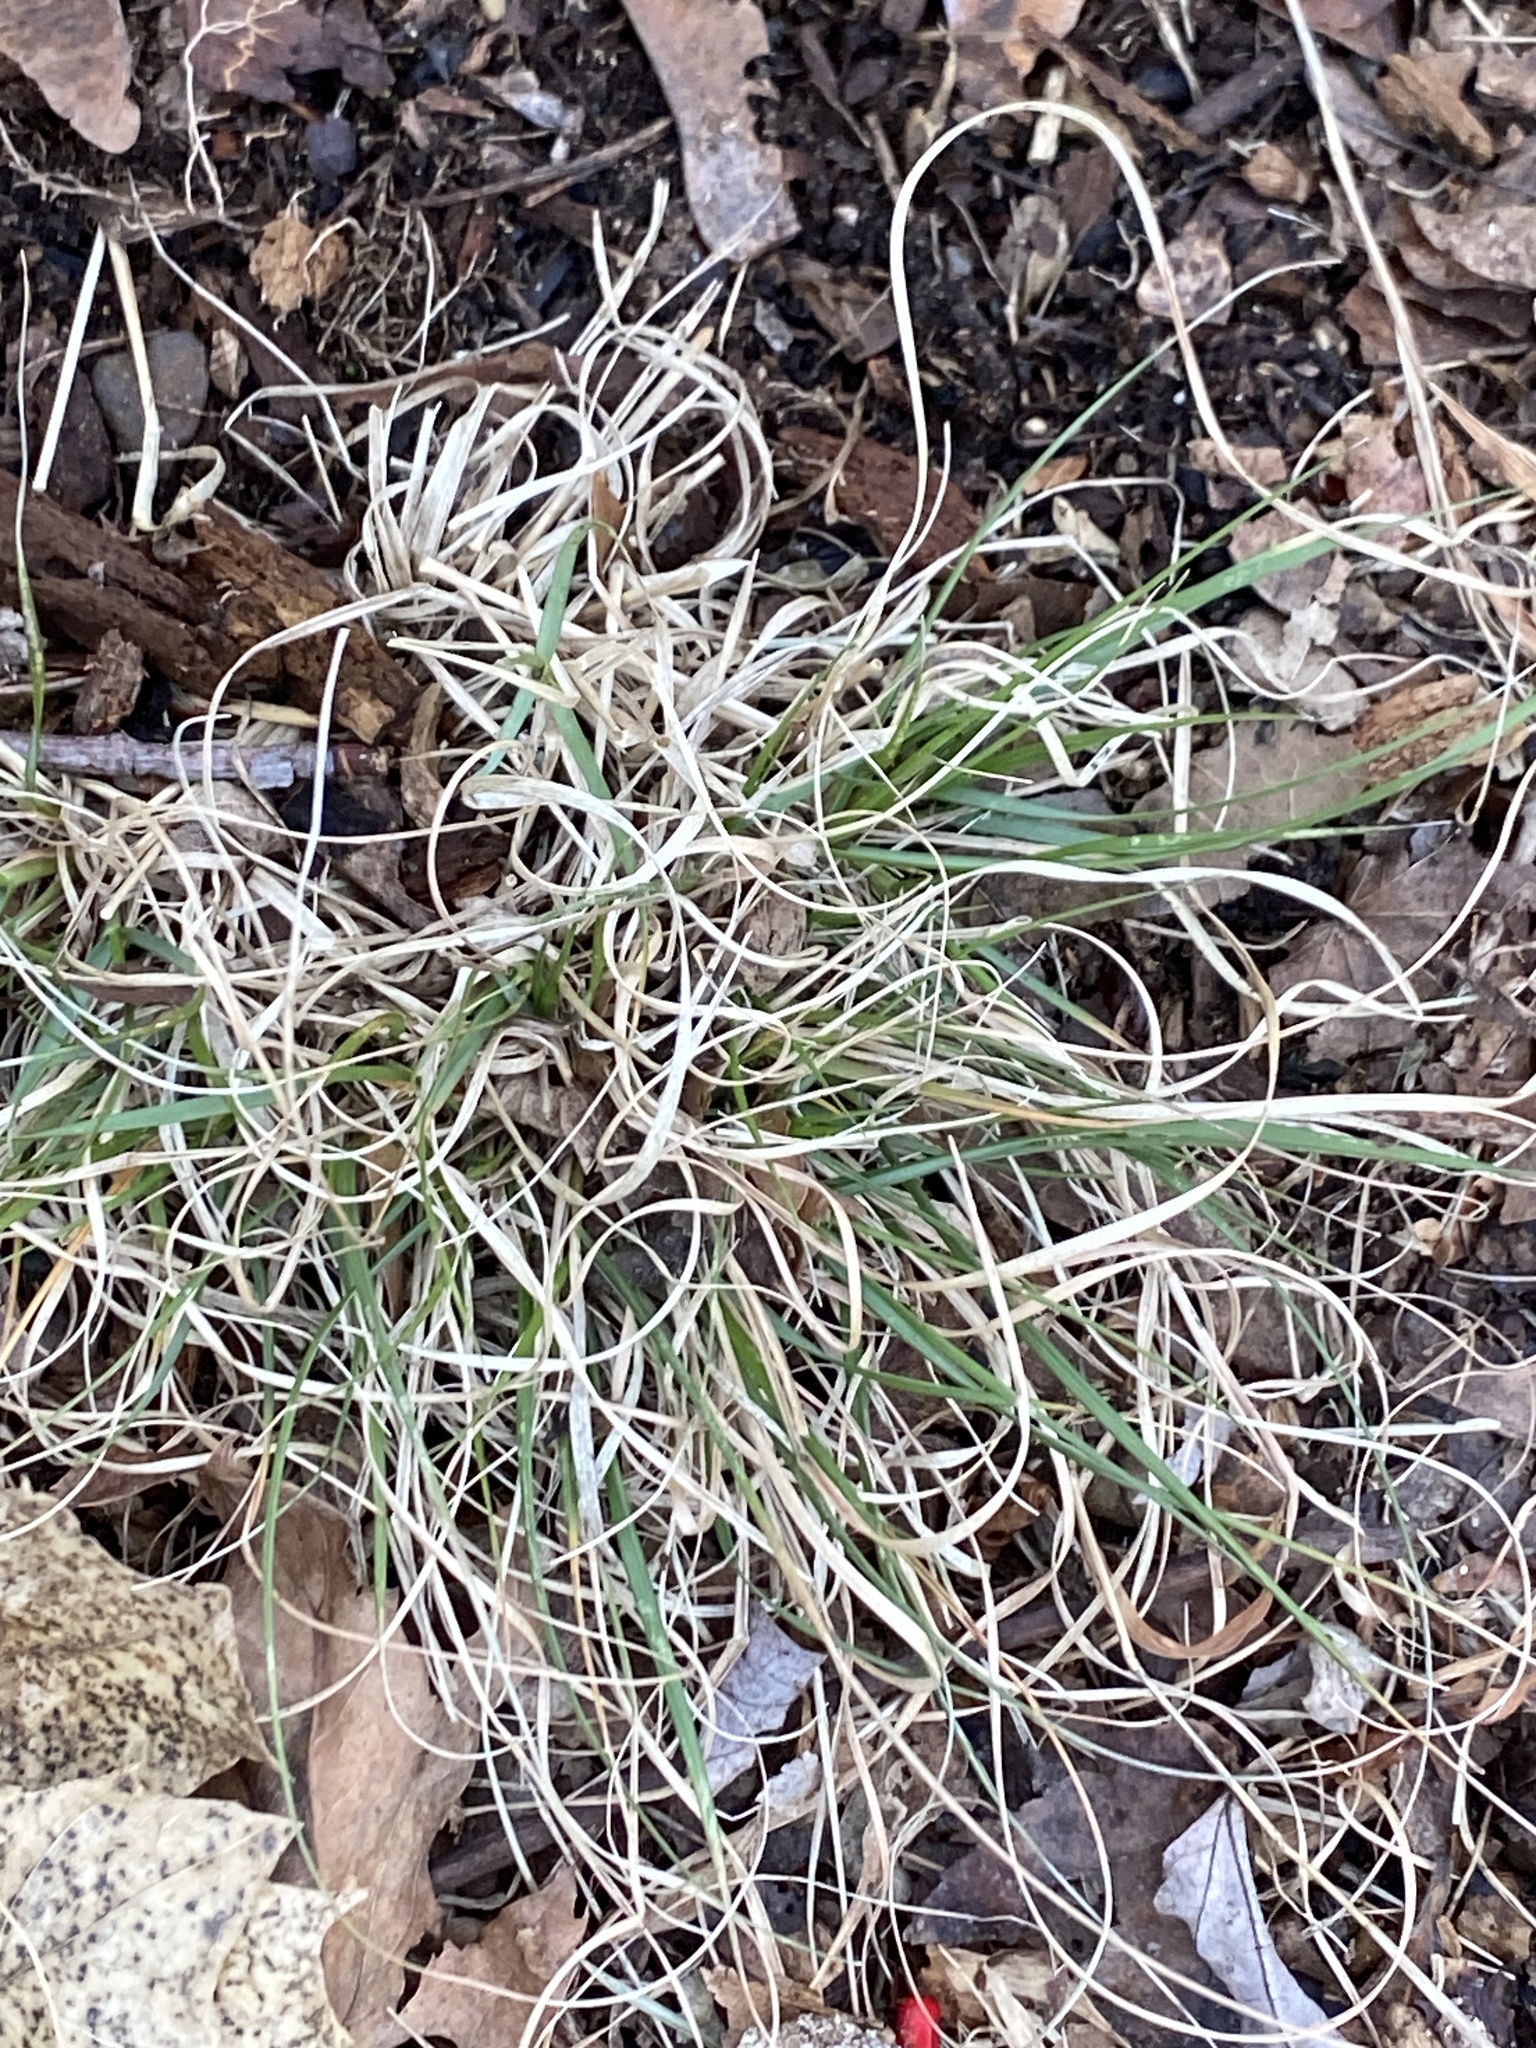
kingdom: Plantae
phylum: Tracheophyta
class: Liliopsida
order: Poales
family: Poaceae
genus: Danthonia
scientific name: Danthonia spicata
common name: Common wild oatgrass
